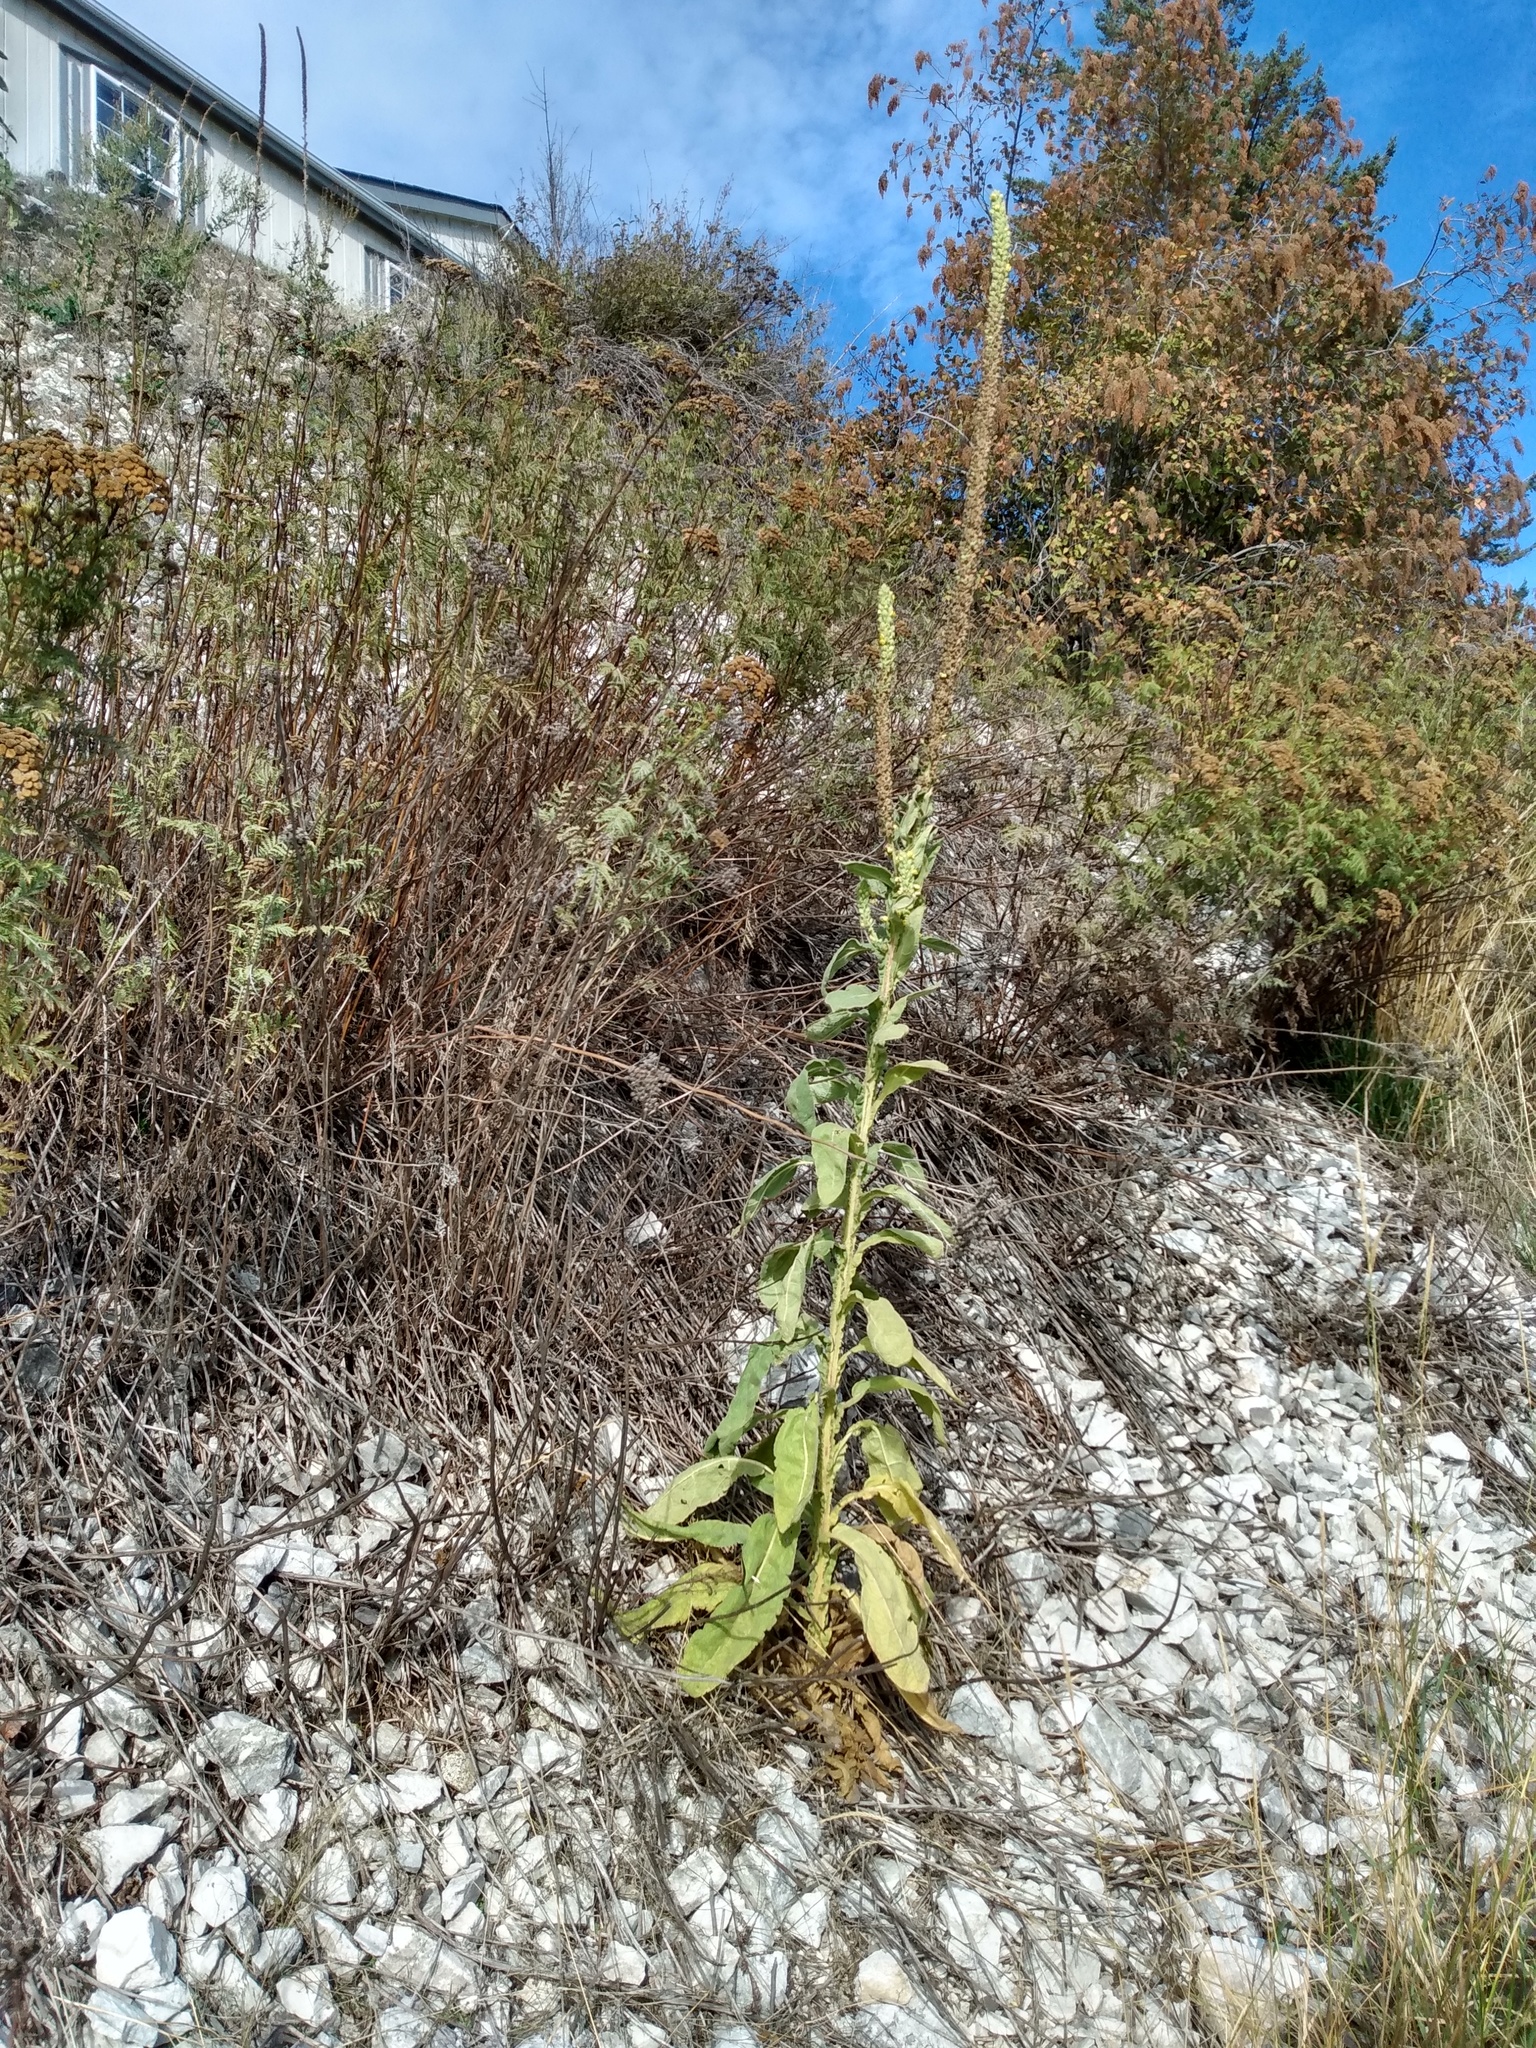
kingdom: Plantae
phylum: Tracheophyta
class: Magnoliopsida
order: Lamiales
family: Scrophulariaceae
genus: Verbascum
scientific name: Verbascum thapsus
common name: Common mullein
